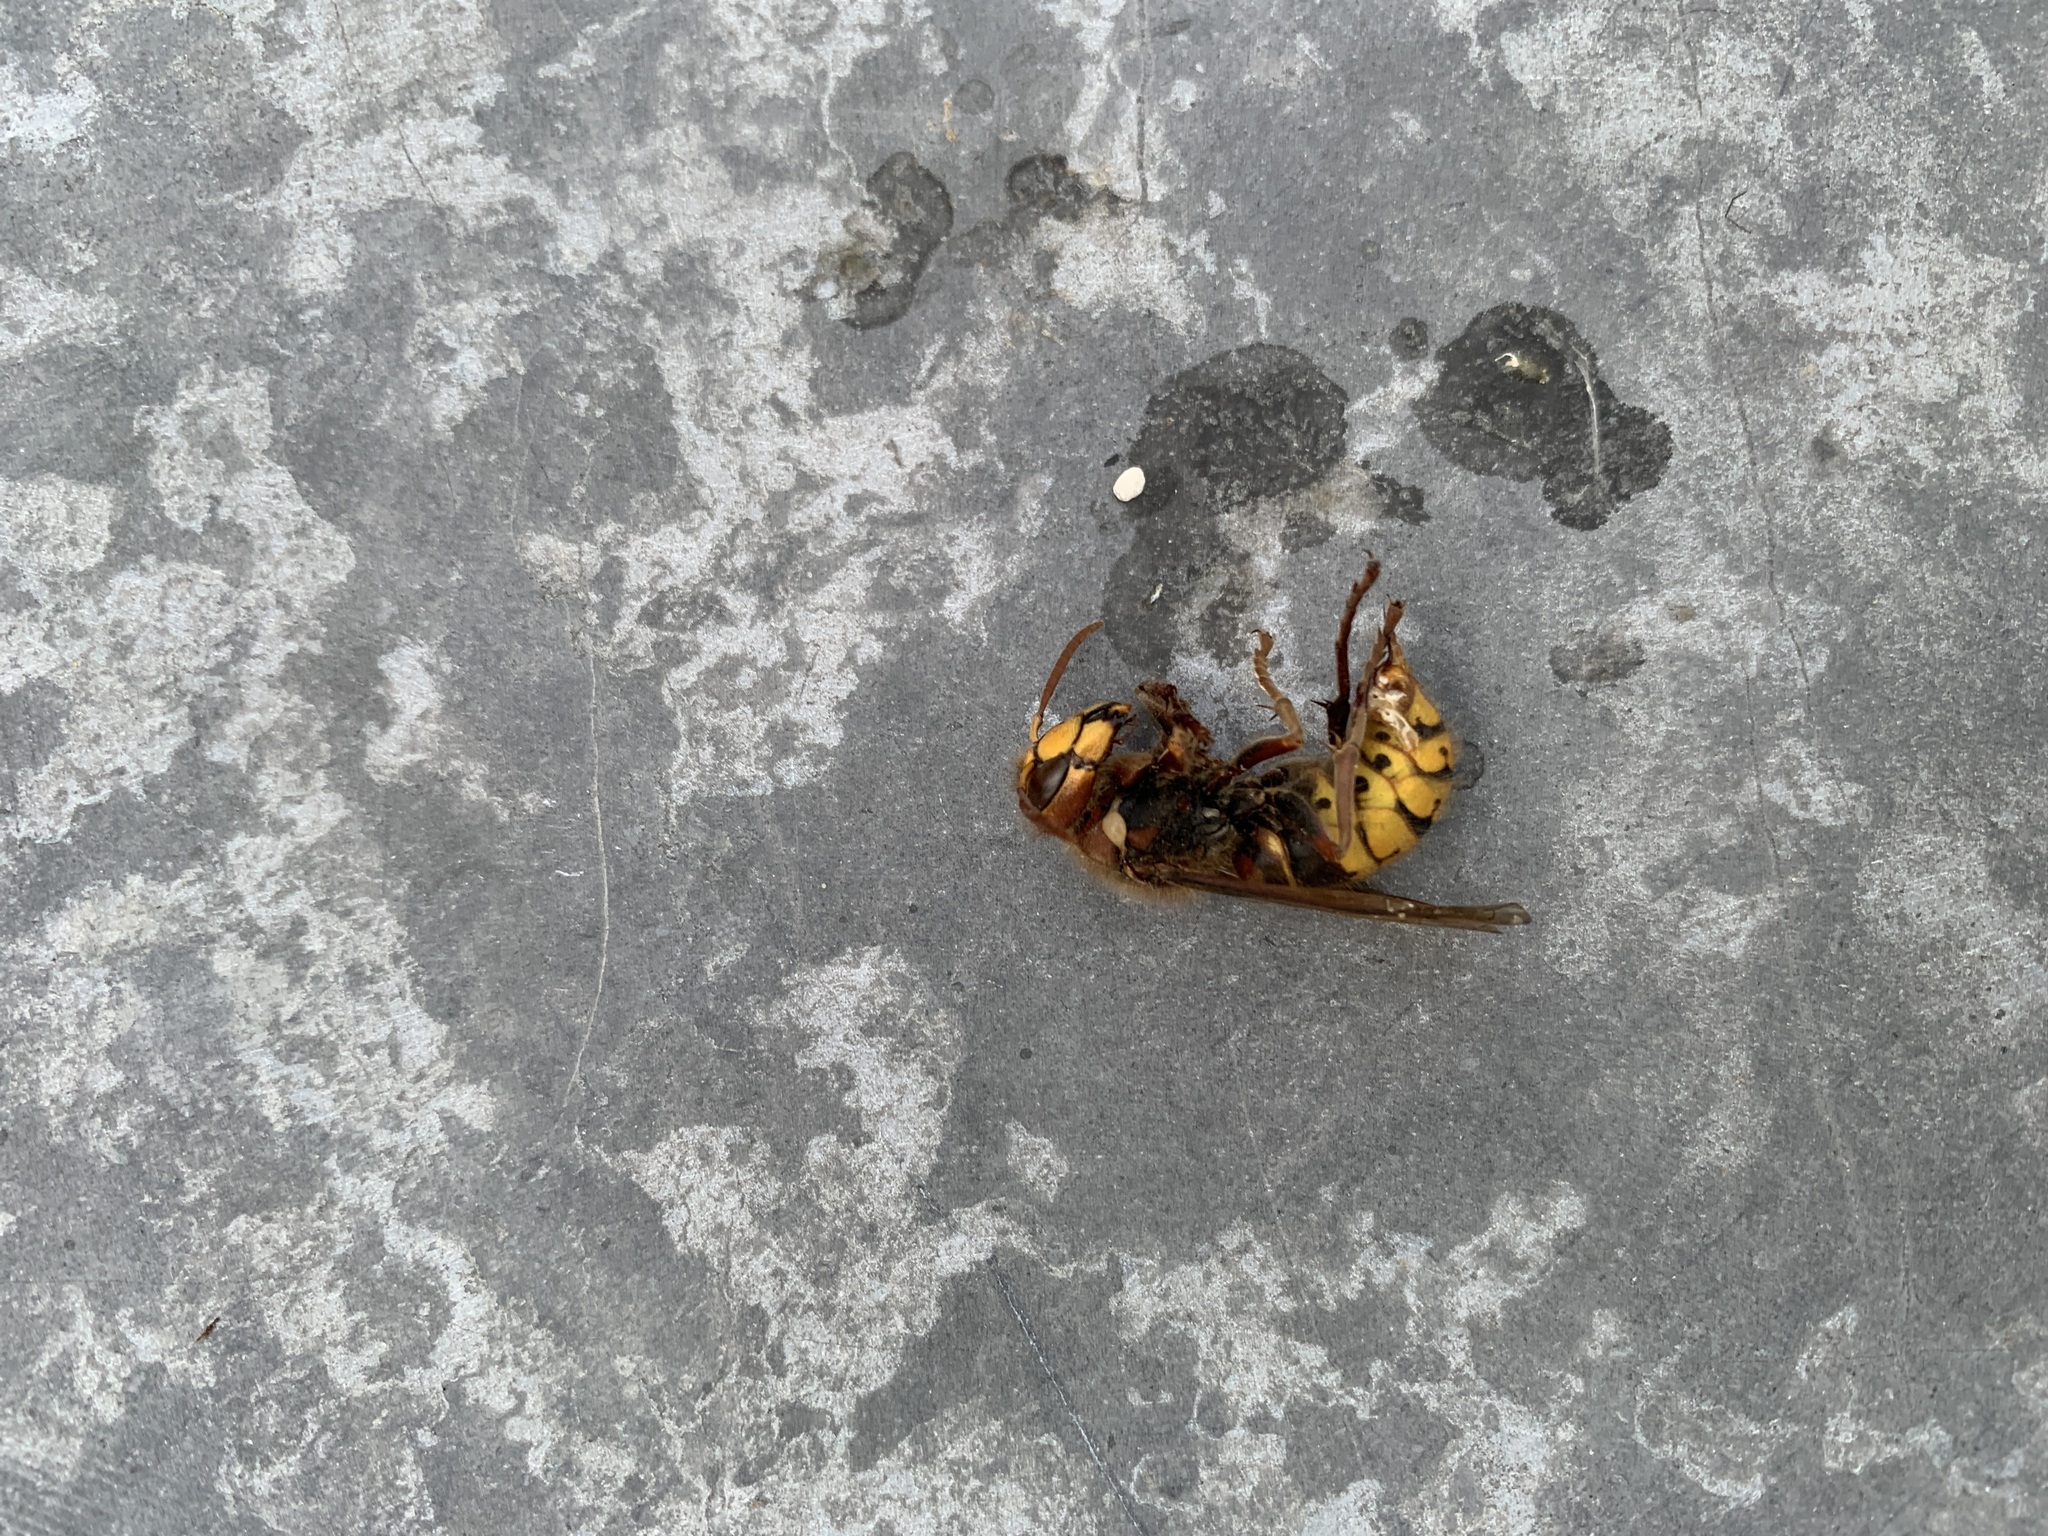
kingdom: Animalia
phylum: Arthropoda
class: Insecta
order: Hymenoptera
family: Vespidae
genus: Vespa
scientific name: Vespa crabro
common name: Hornet
